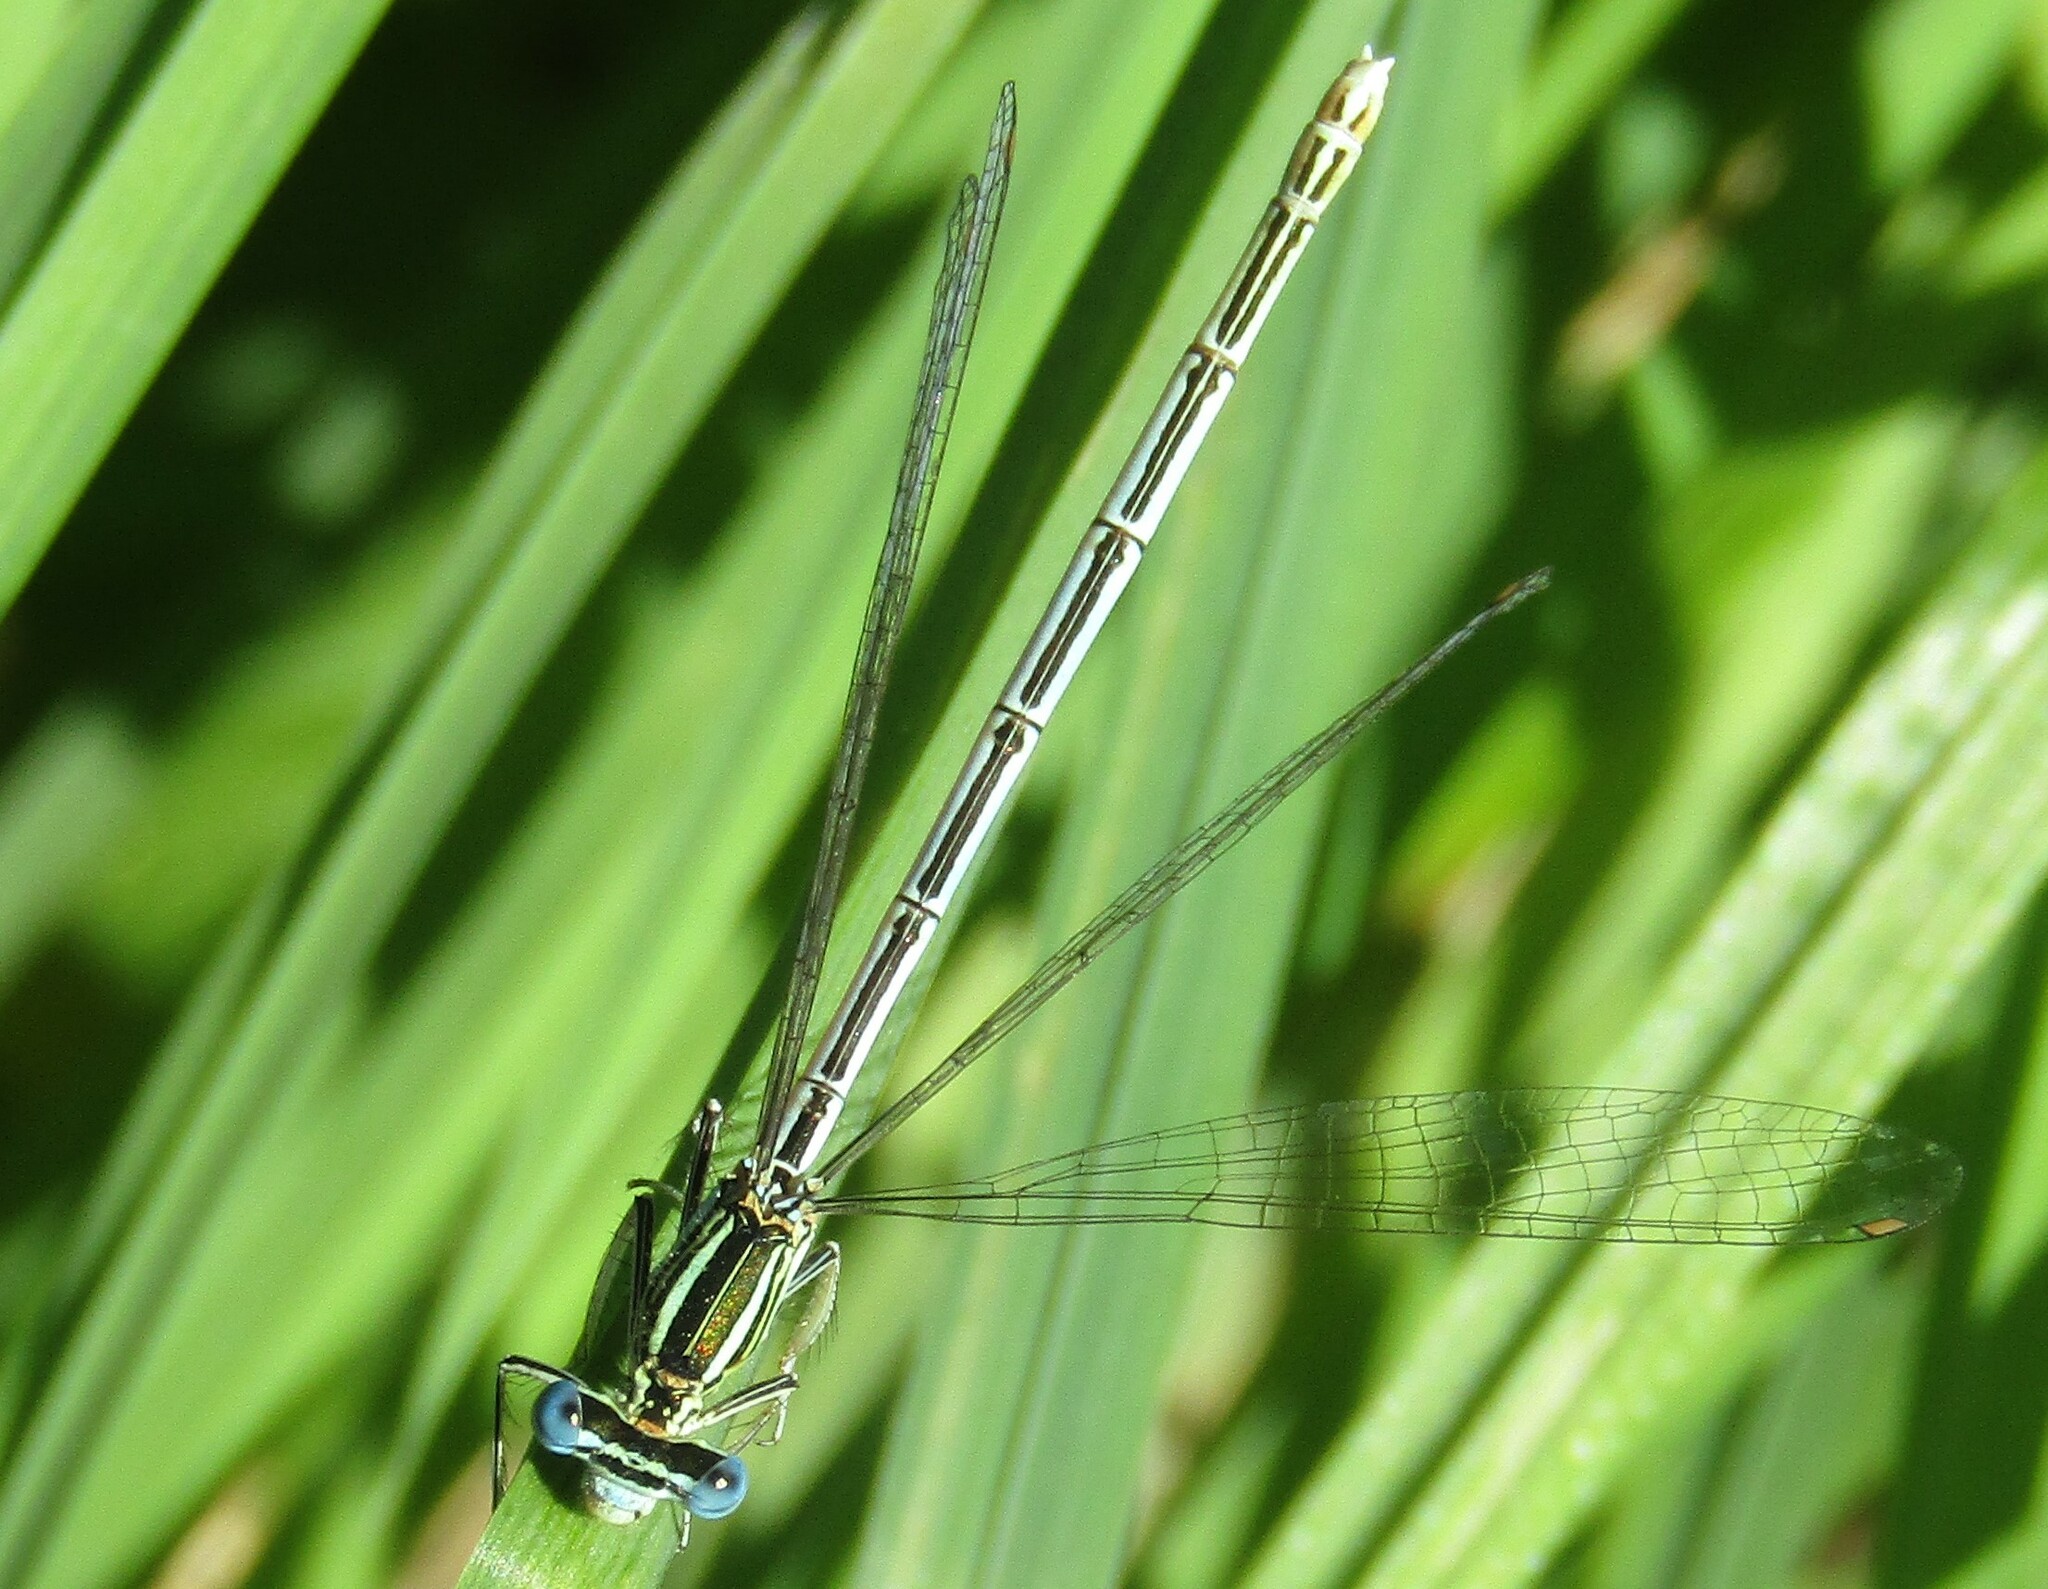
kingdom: Animalia
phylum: Arthropoda
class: Insecta
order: Odonata
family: Platycnemididae
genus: Platycnemis
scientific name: Platycnemis pennipes
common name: White-legged damselfly
